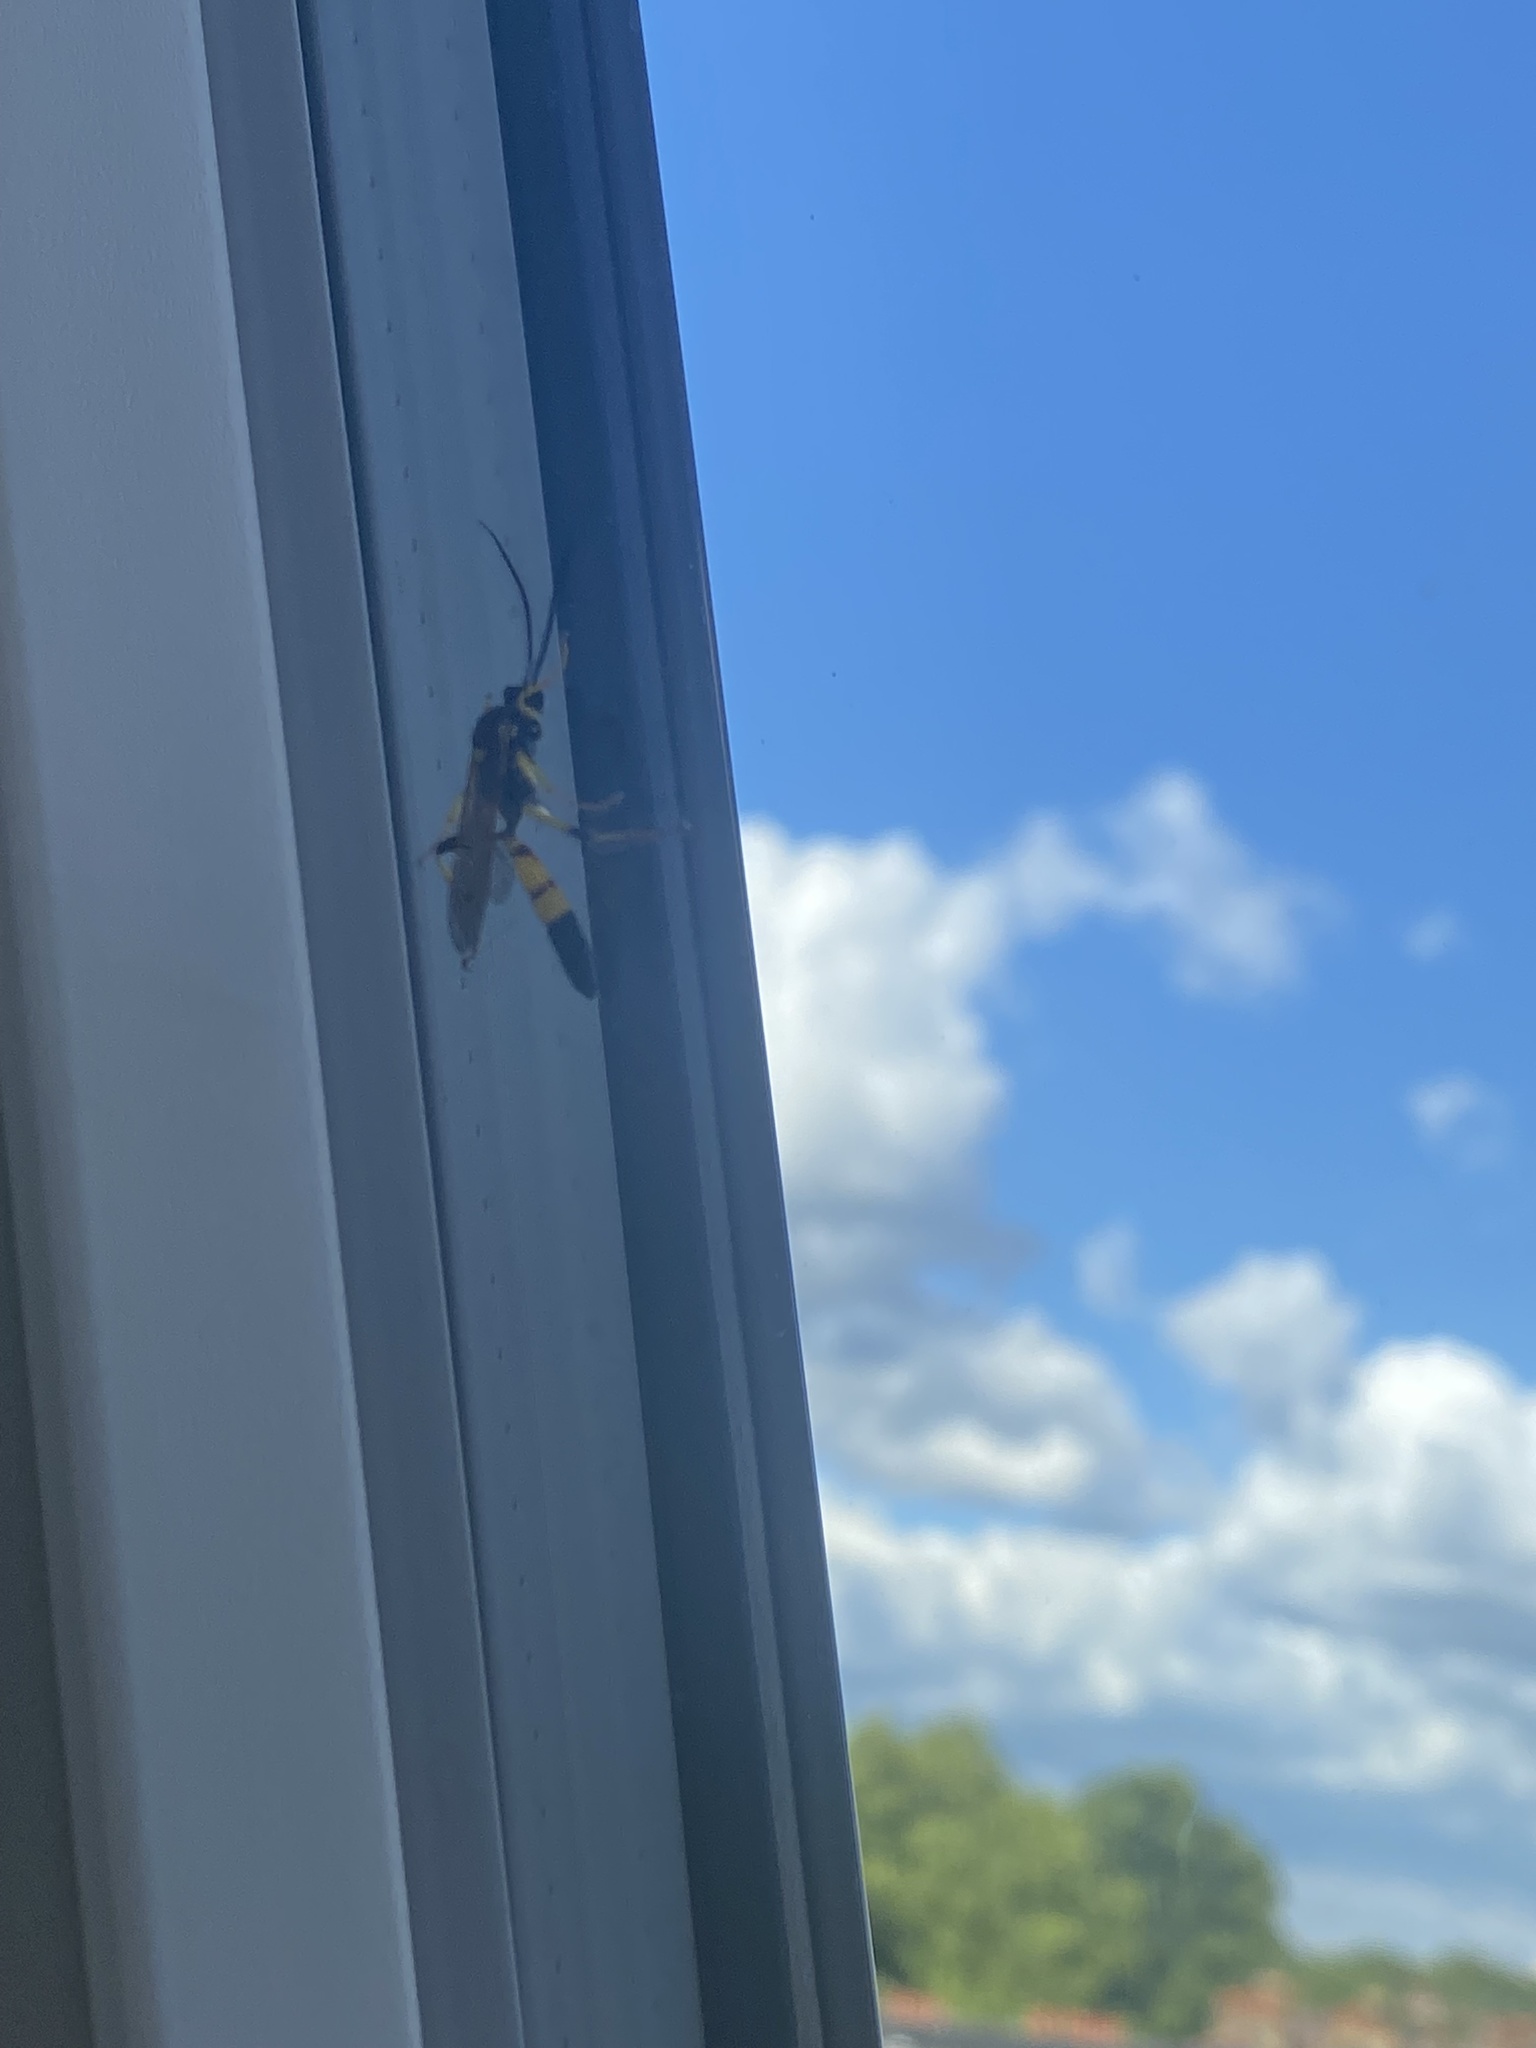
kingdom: Animalia
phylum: Arthropoda
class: Insecta
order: Hymenoptera
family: Ichneumonidae
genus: Ichneumon
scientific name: Ichneumon xanthorius
